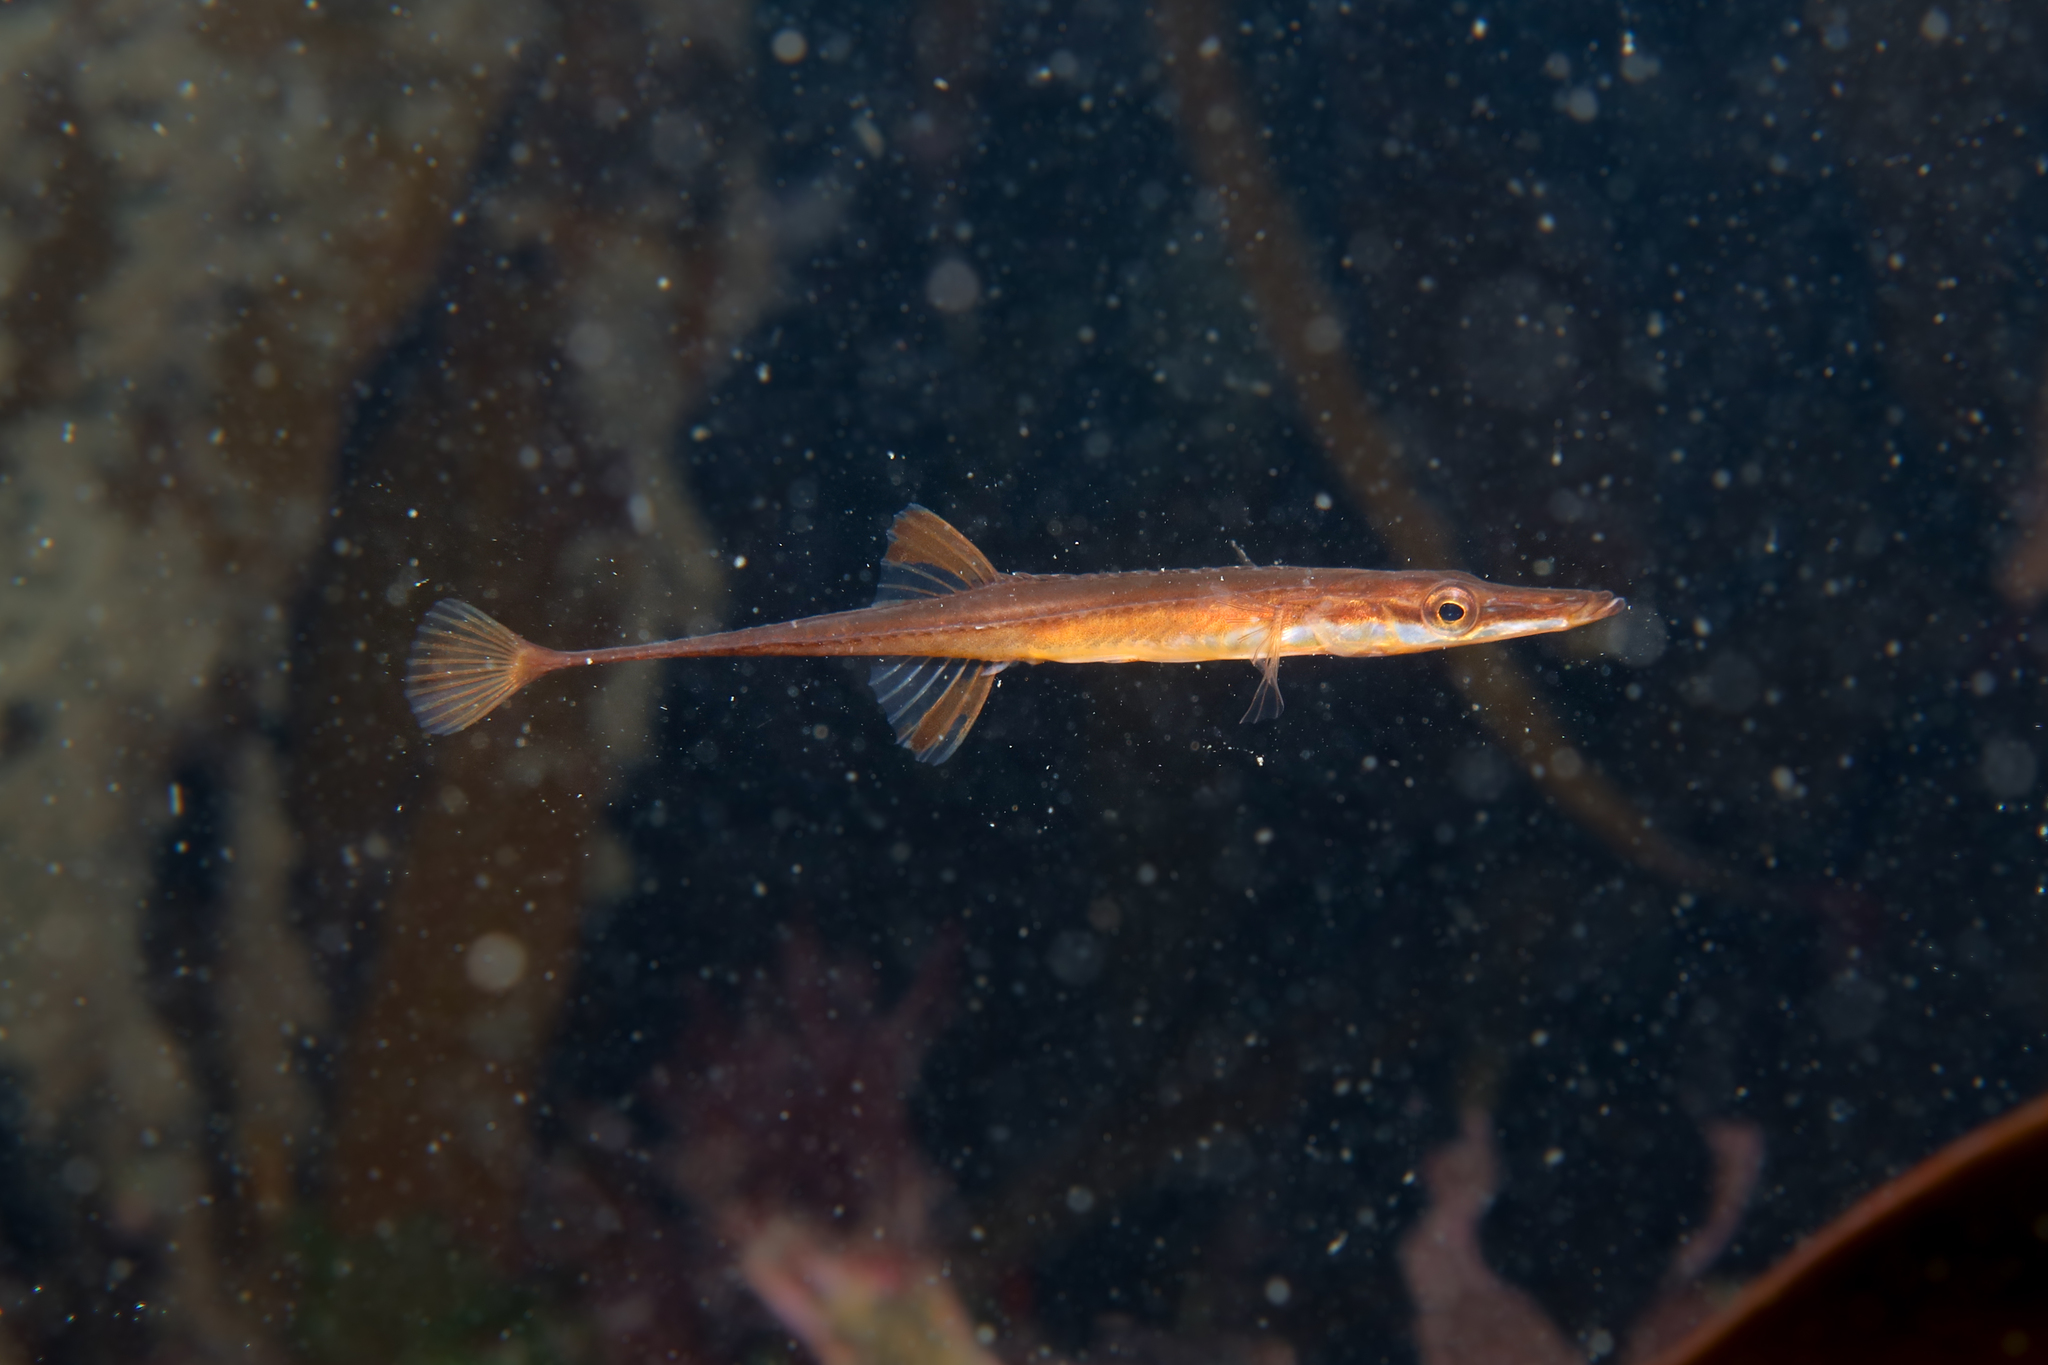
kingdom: Animalia
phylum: Chordata
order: Gasterosteiformes
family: Gasterosteidae
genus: Spinachia
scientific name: Spinachia spinachia
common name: Fifteen-spined stickleback
